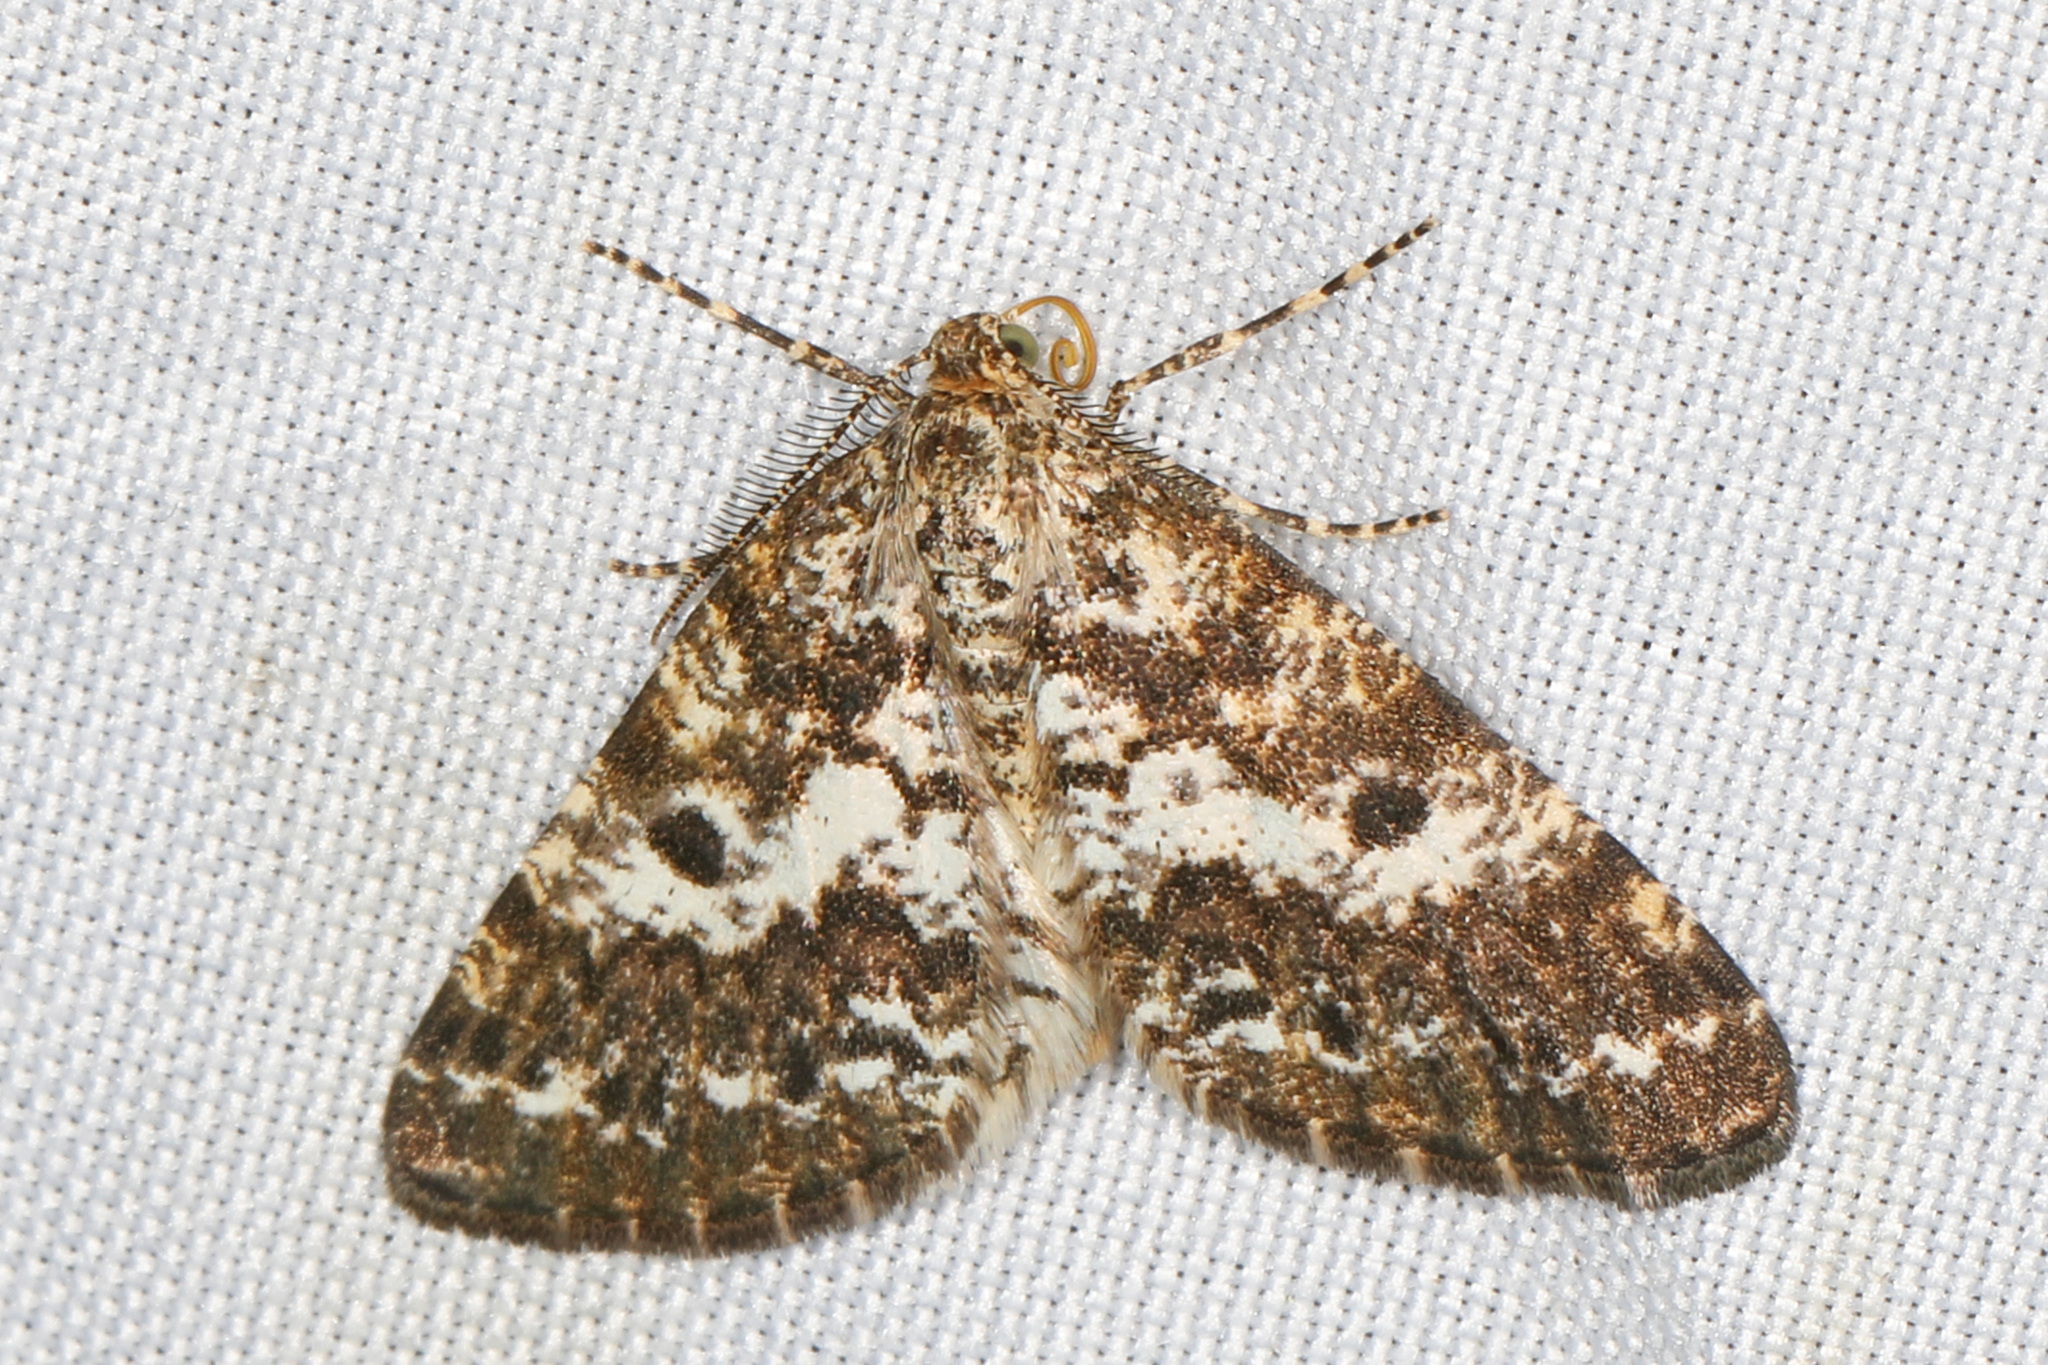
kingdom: Animalia
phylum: Arthropoda
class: Insecta
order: Lepidoptera
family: Geometridae
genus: Eufidonia
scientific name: Eufidonia notataria
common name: Powder moth
